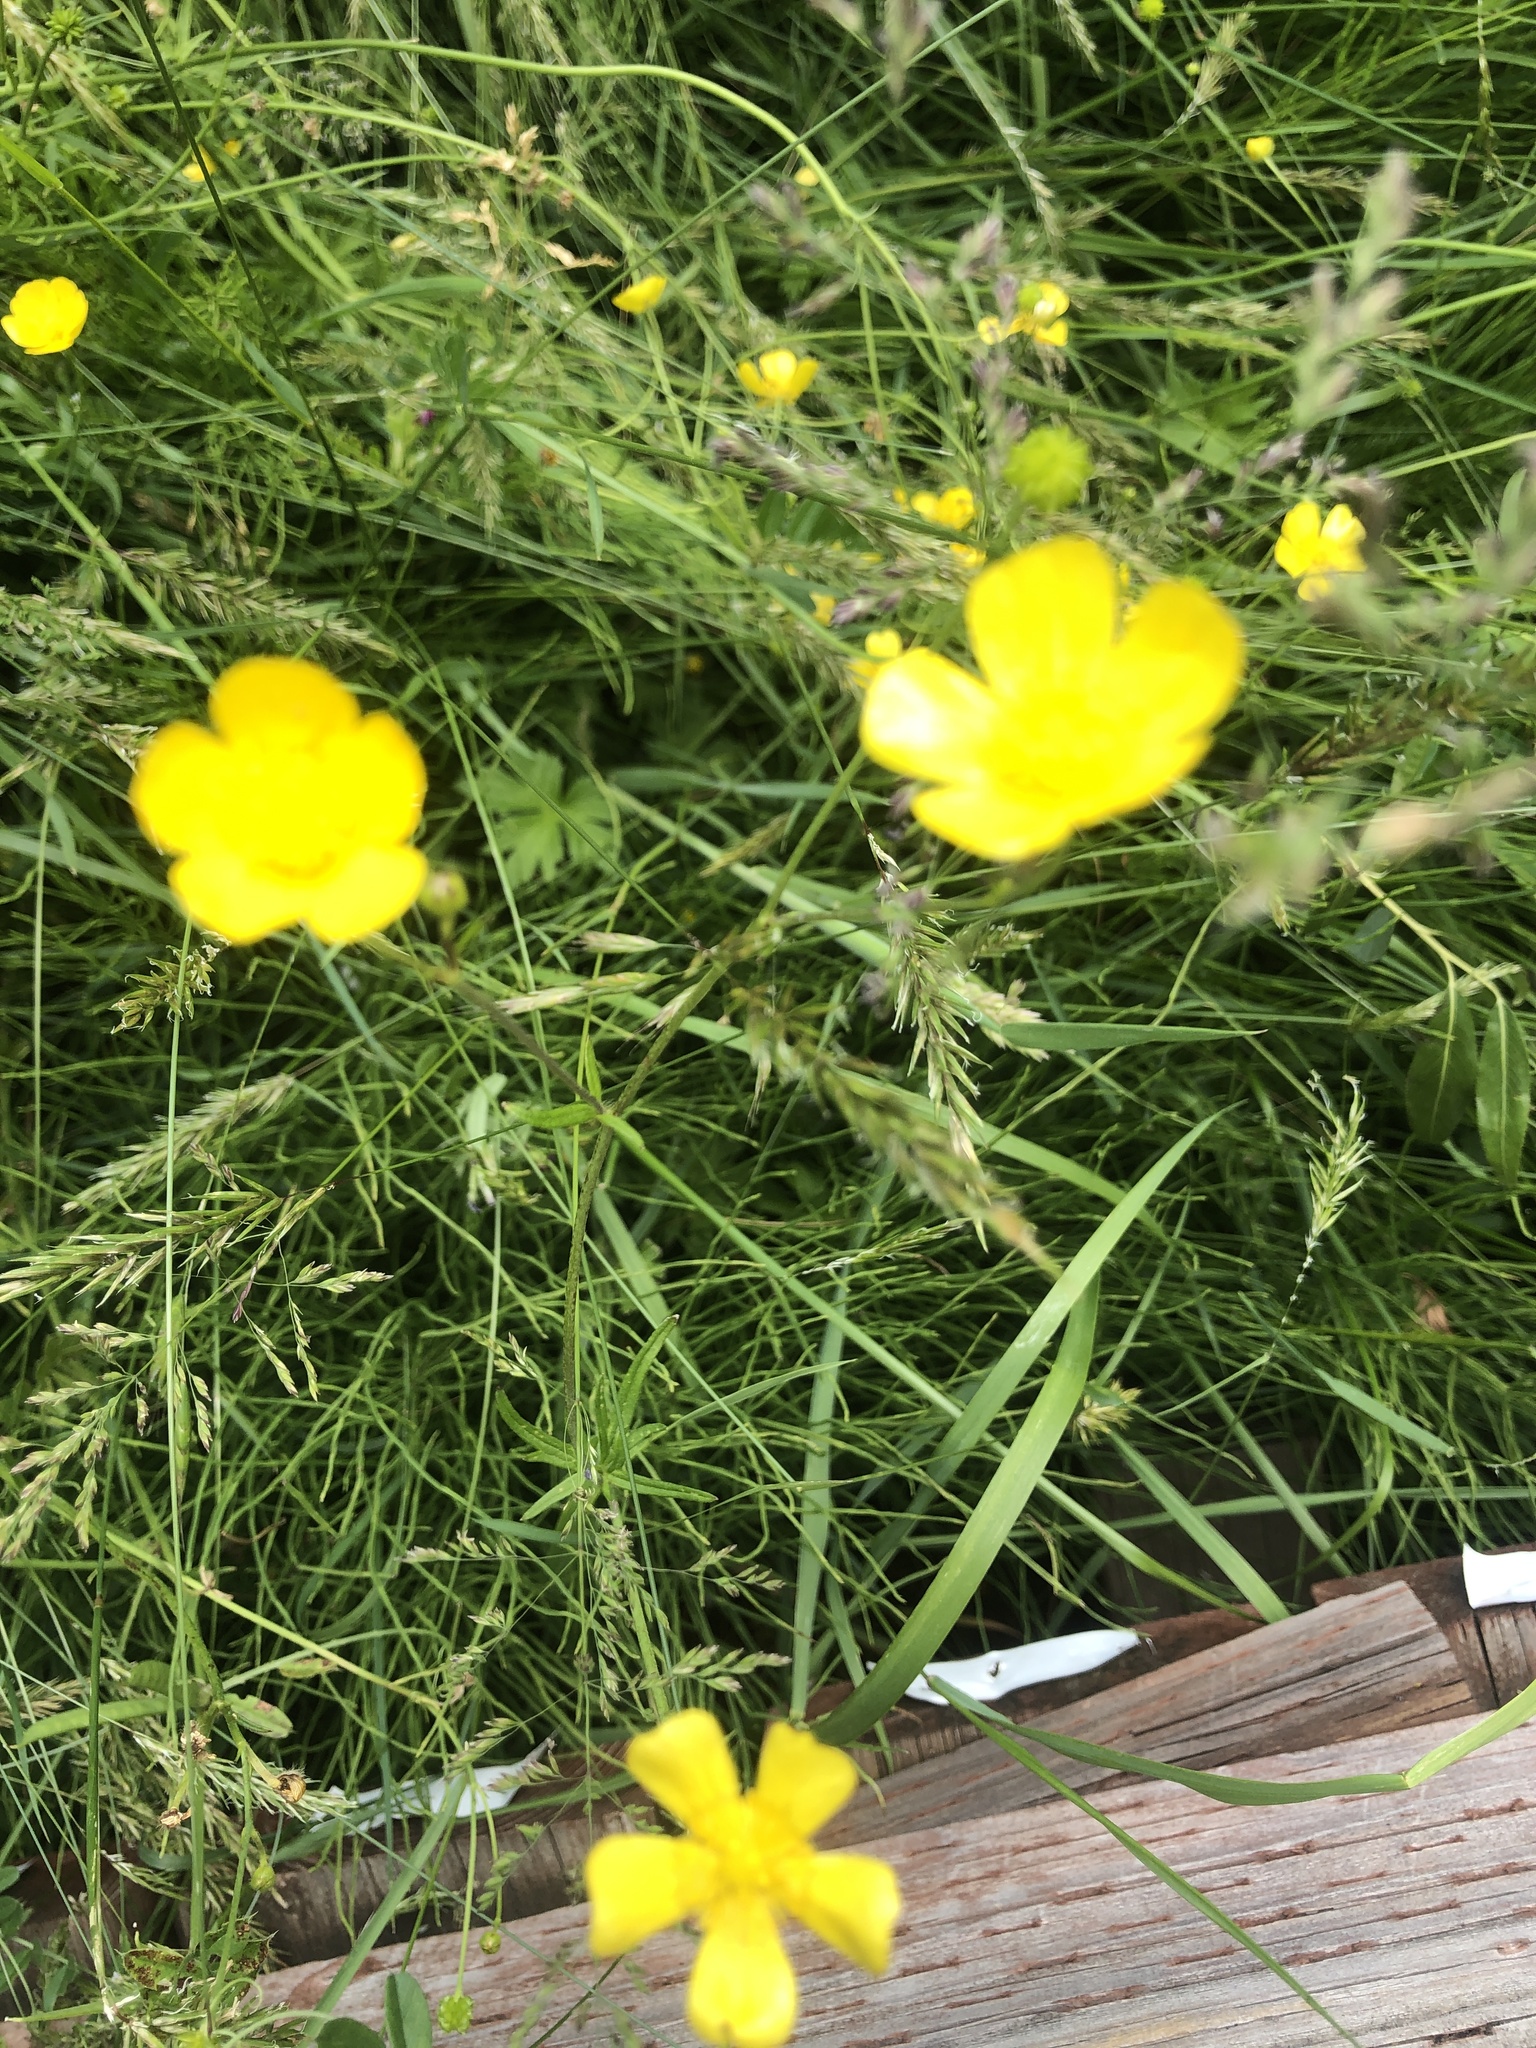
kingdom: Plantae
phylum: Tracheophyta
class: Magnoliopsida
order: Ranunculales
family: Ranunculaceae
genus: Ranunculus
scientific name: Ranunculus acris
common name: Meadow buttercup
